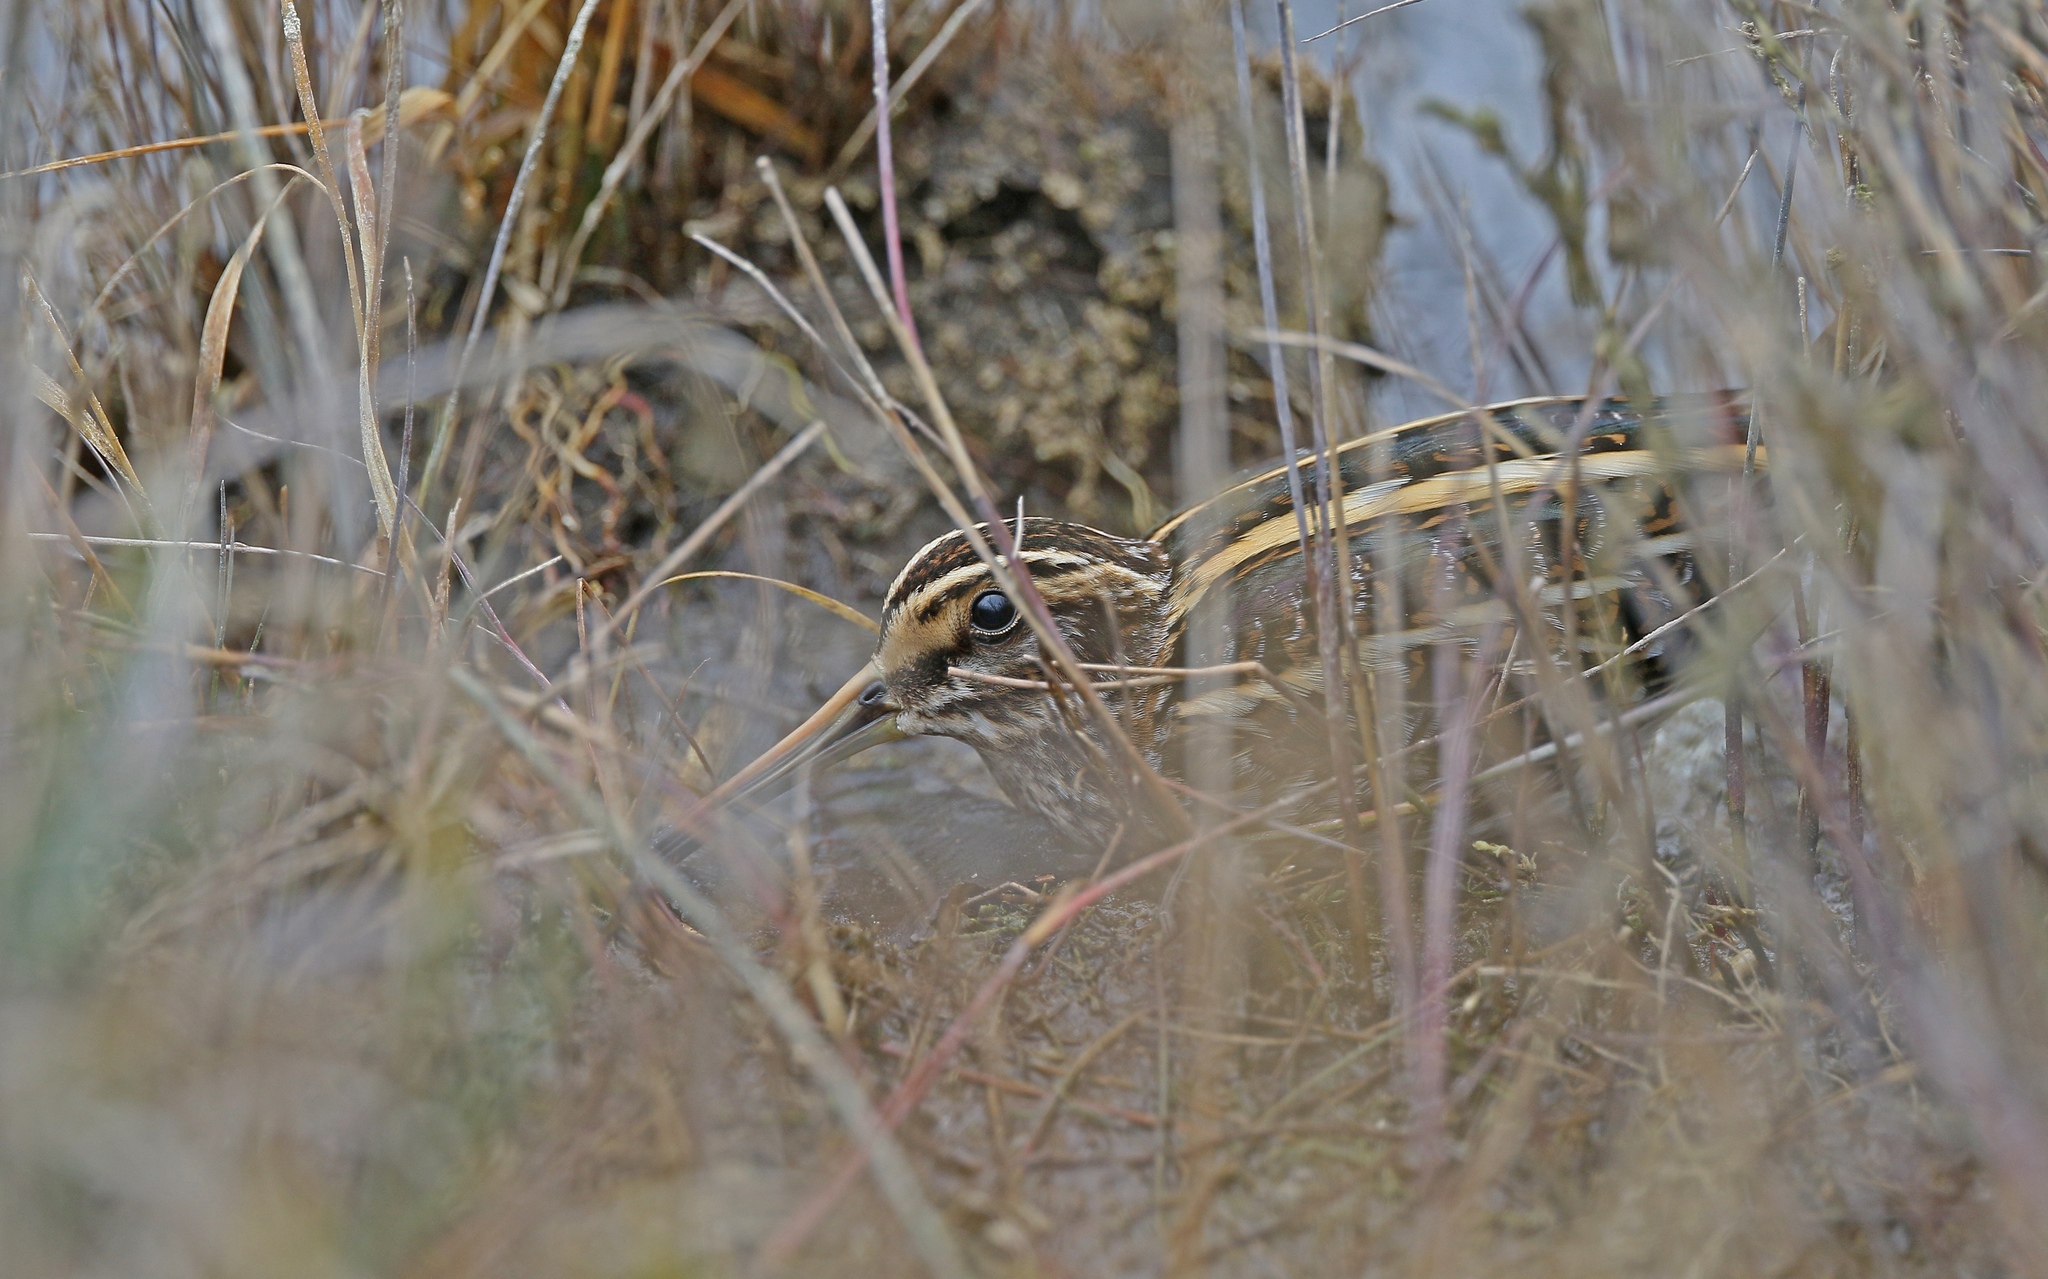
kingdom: Animalia
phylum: Chordata
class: Aves
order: Charadriiformes
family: Scolopacidae
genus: Lymnocryptes
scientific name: Lymnocryptes minimus
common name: Jack snipe
